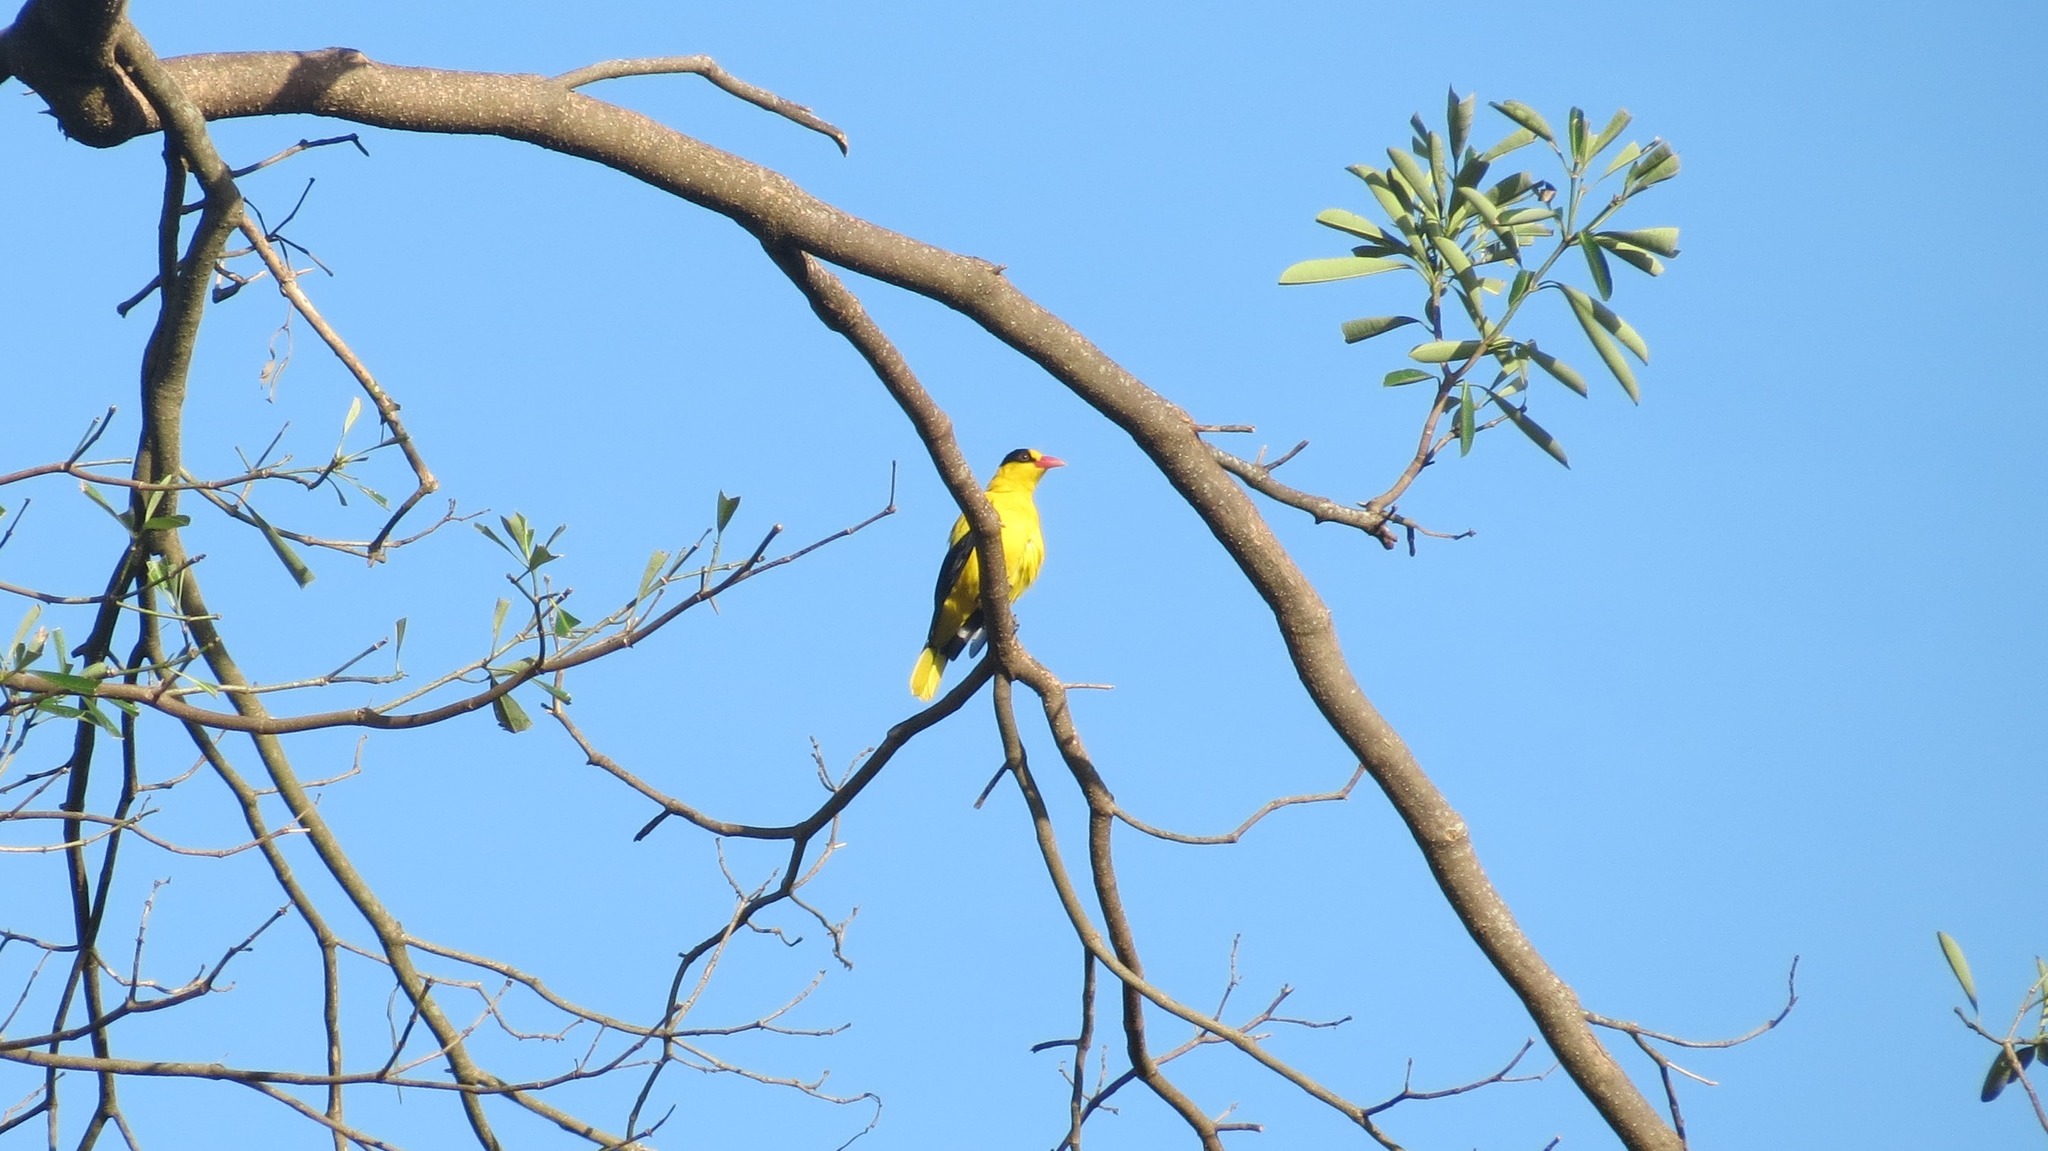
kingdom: Animalia
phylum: Chordata
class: Aves
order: Passeriformes
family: Oriolidae
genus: Oriolus
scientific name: Oriolus chinensis
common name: Black-naped oriole
